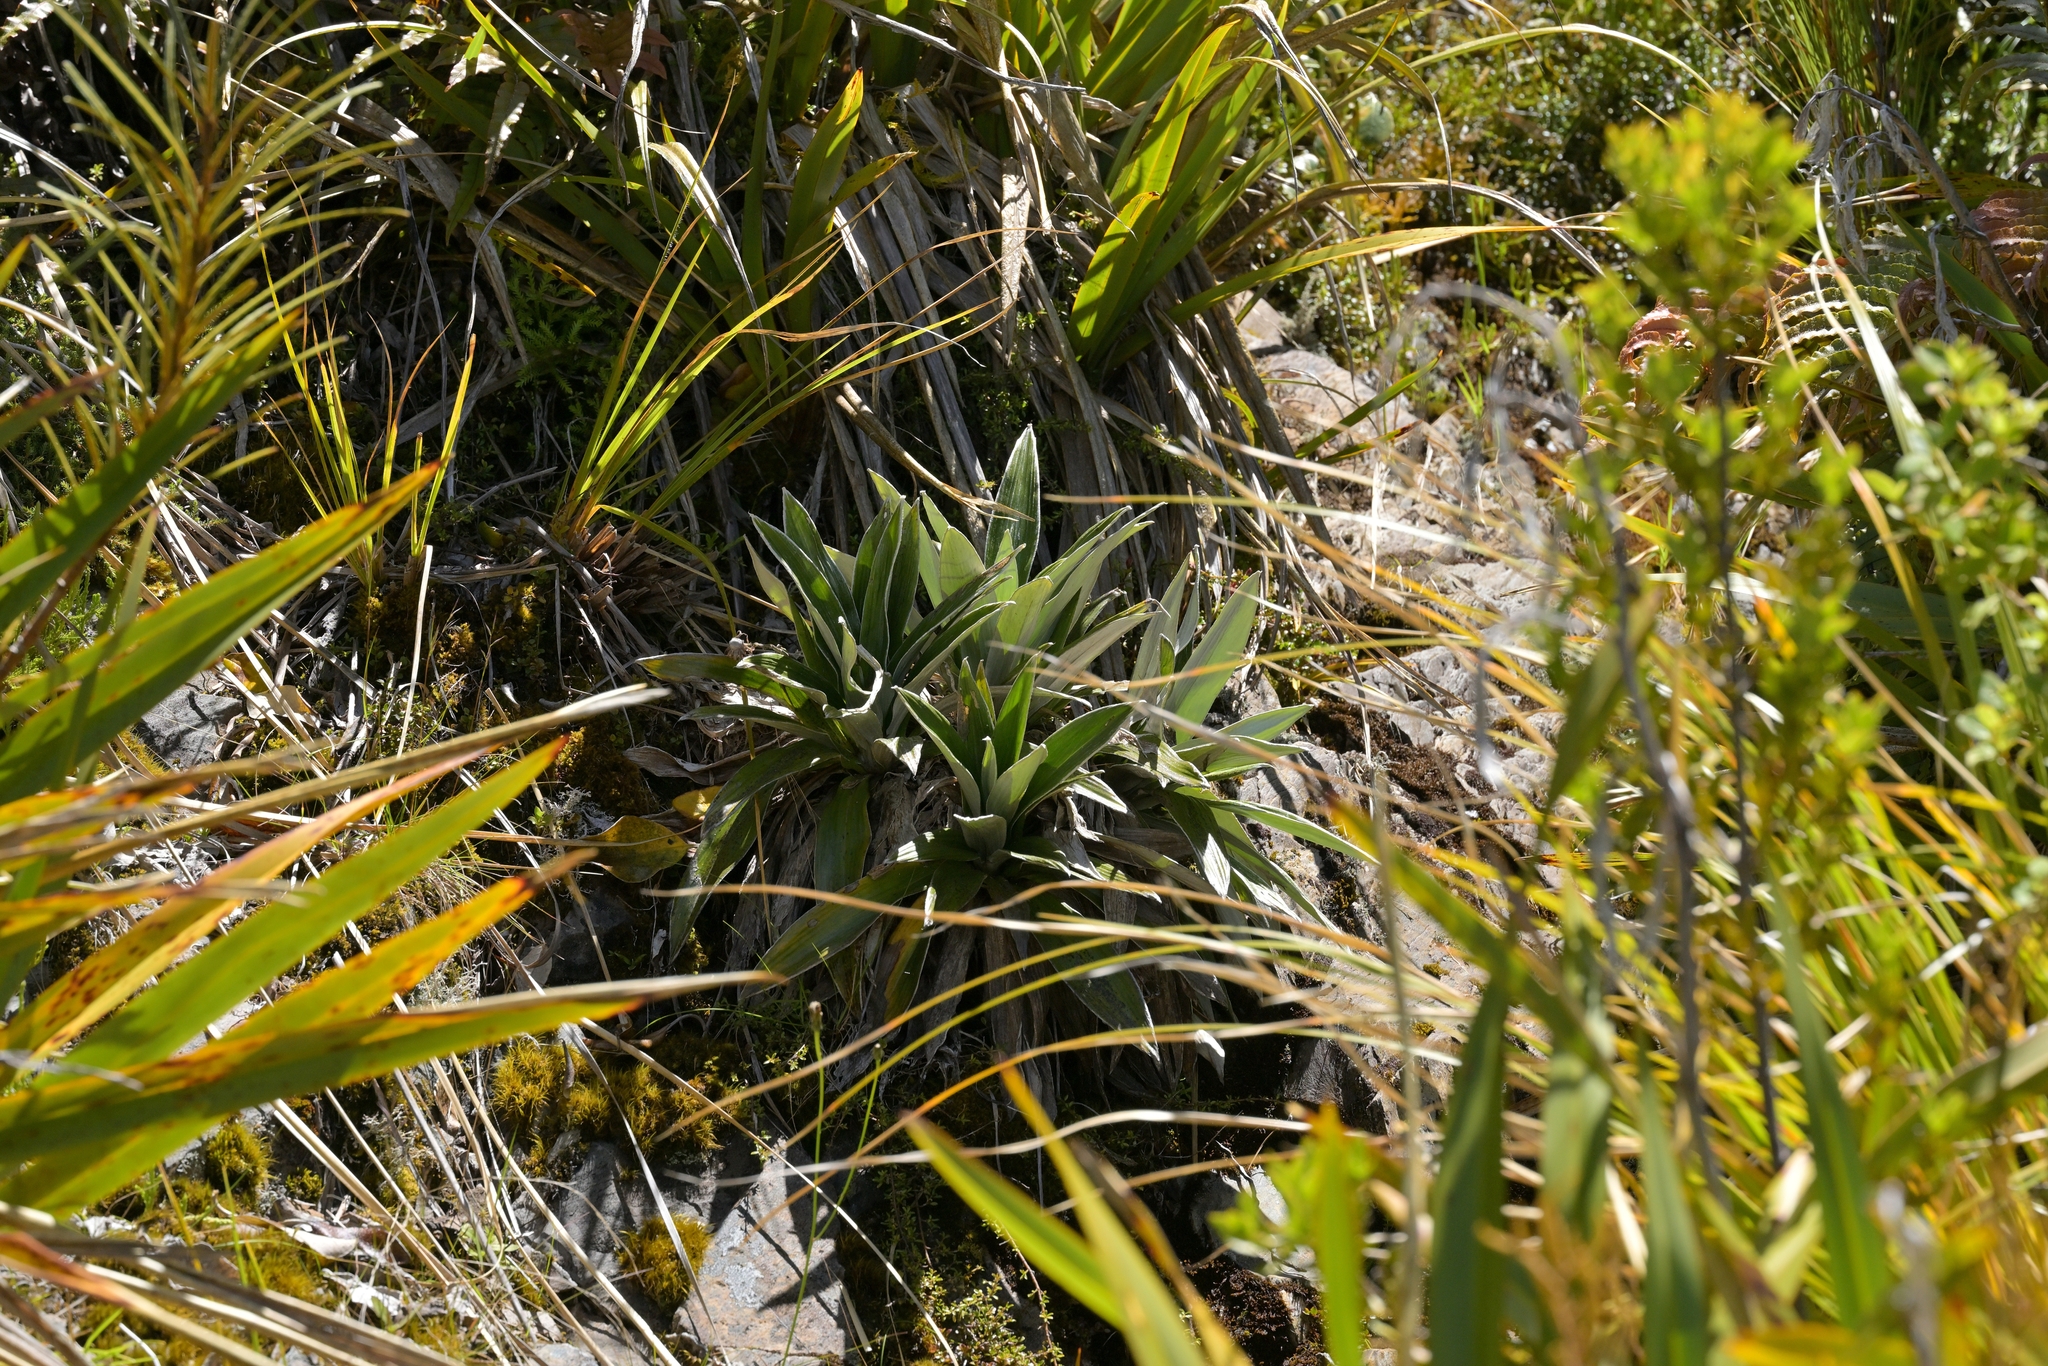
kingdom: Plantae
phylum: Tracheophyta
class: Magnoliopsida
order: Asterales
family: Asteraceae
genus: Celmisia
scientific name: Celmisia semicordata
